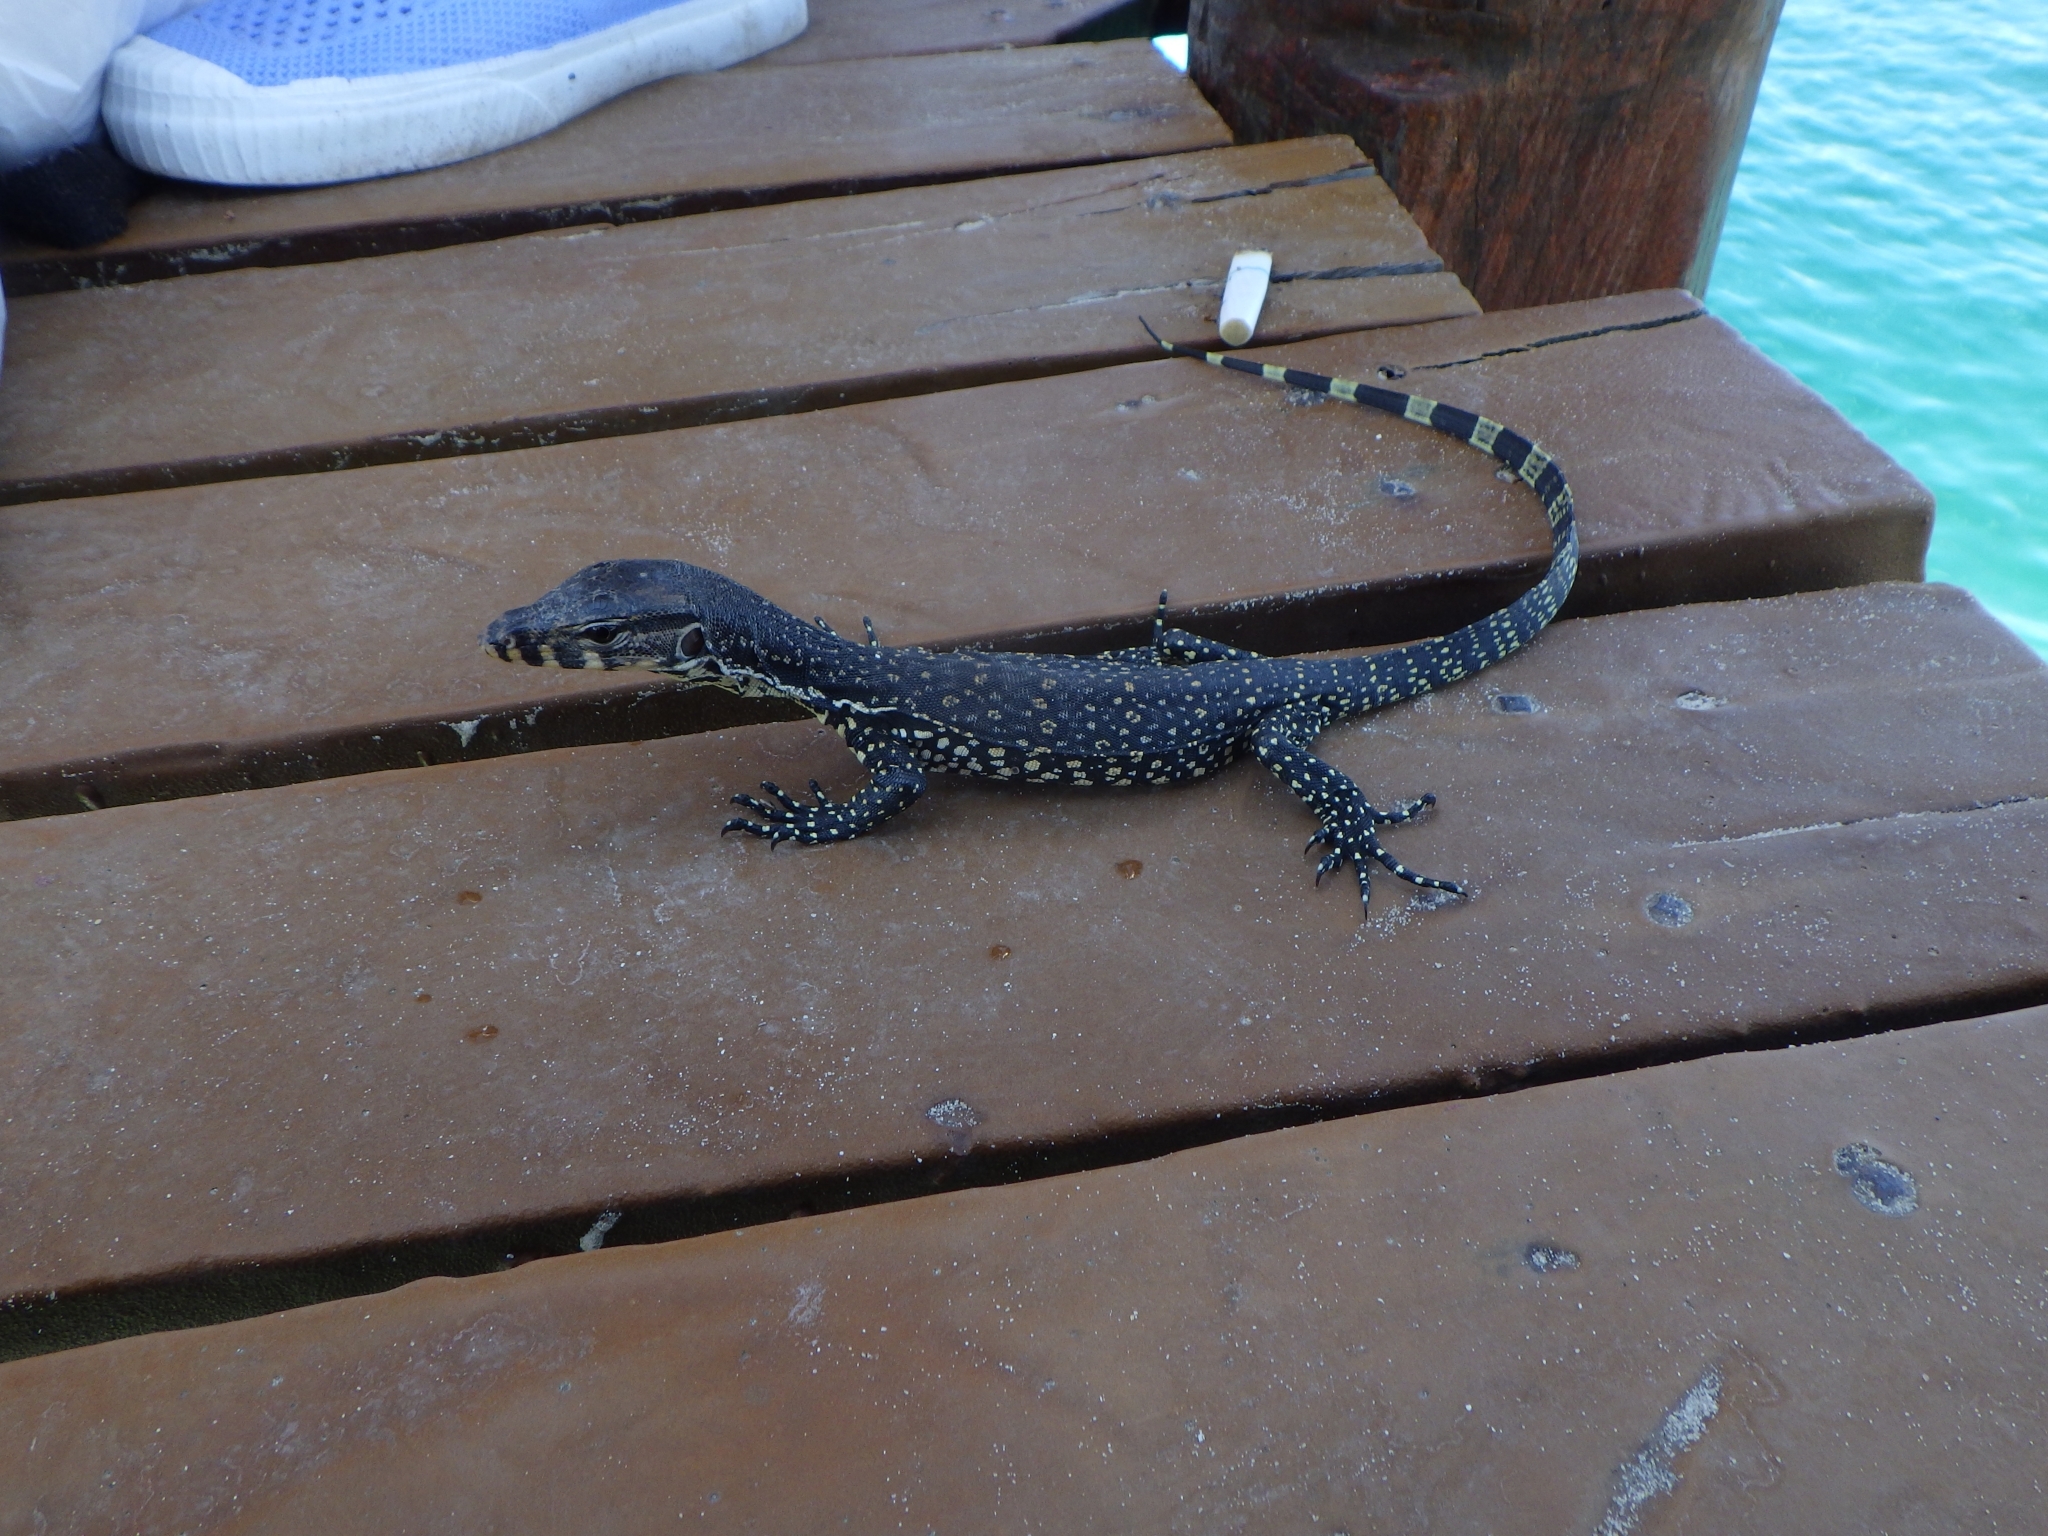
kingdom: Animalia
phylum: Chordata
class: Squamata
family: Varanidae
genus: Varanus
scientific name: Varanus salvator
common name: Common water monitor
